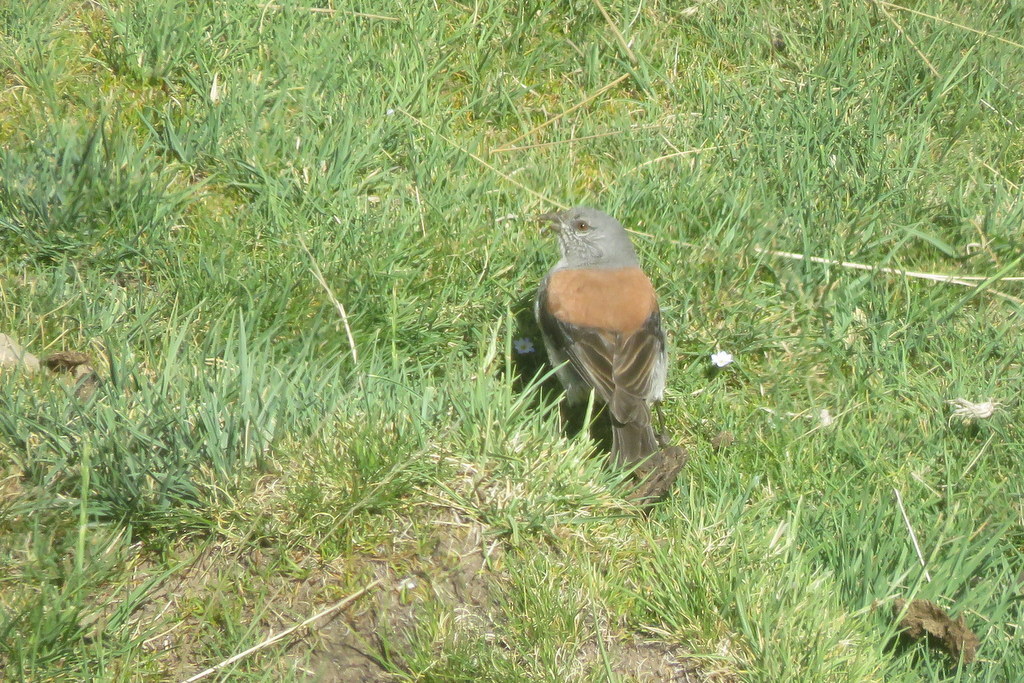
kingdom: Animalia
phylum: Chordata
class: Aves
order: Passeriformes
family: Thraupidae
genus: Idiopsar
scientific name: Idiopsar dorsalis
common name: Red-backed sierra finch
